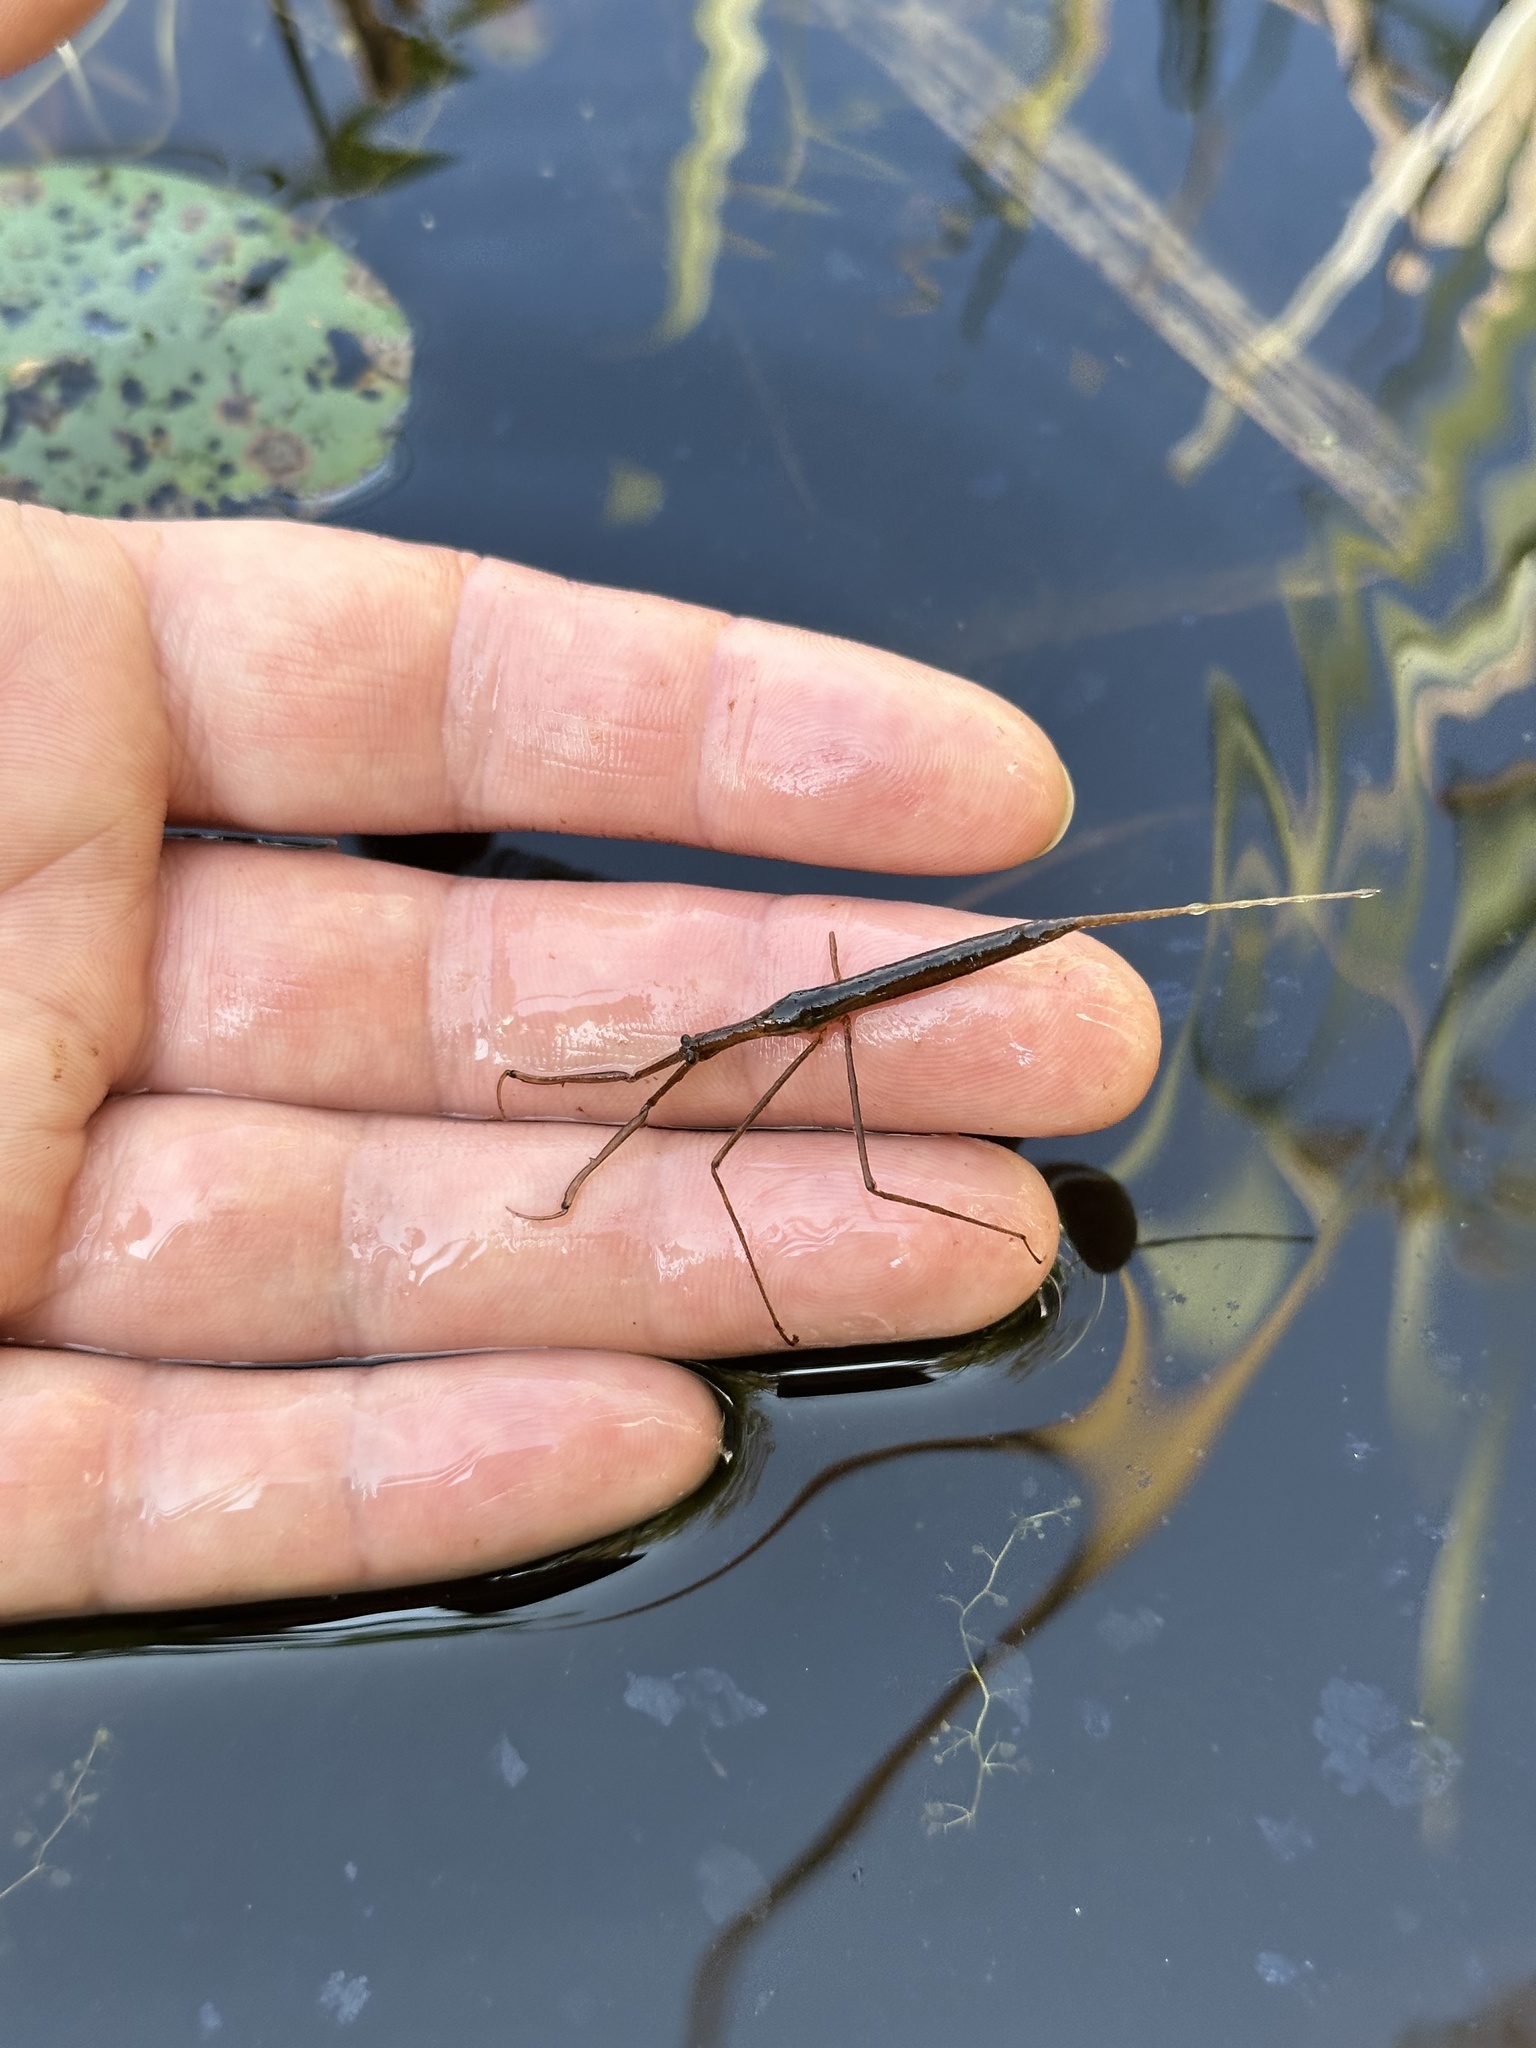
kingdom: Animalia
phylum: Arthropoda
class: Insecta
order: Hemiptera
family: Nepidae
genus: Ranatra
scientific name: Ranatra fusca
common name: Brown waterscorpion
